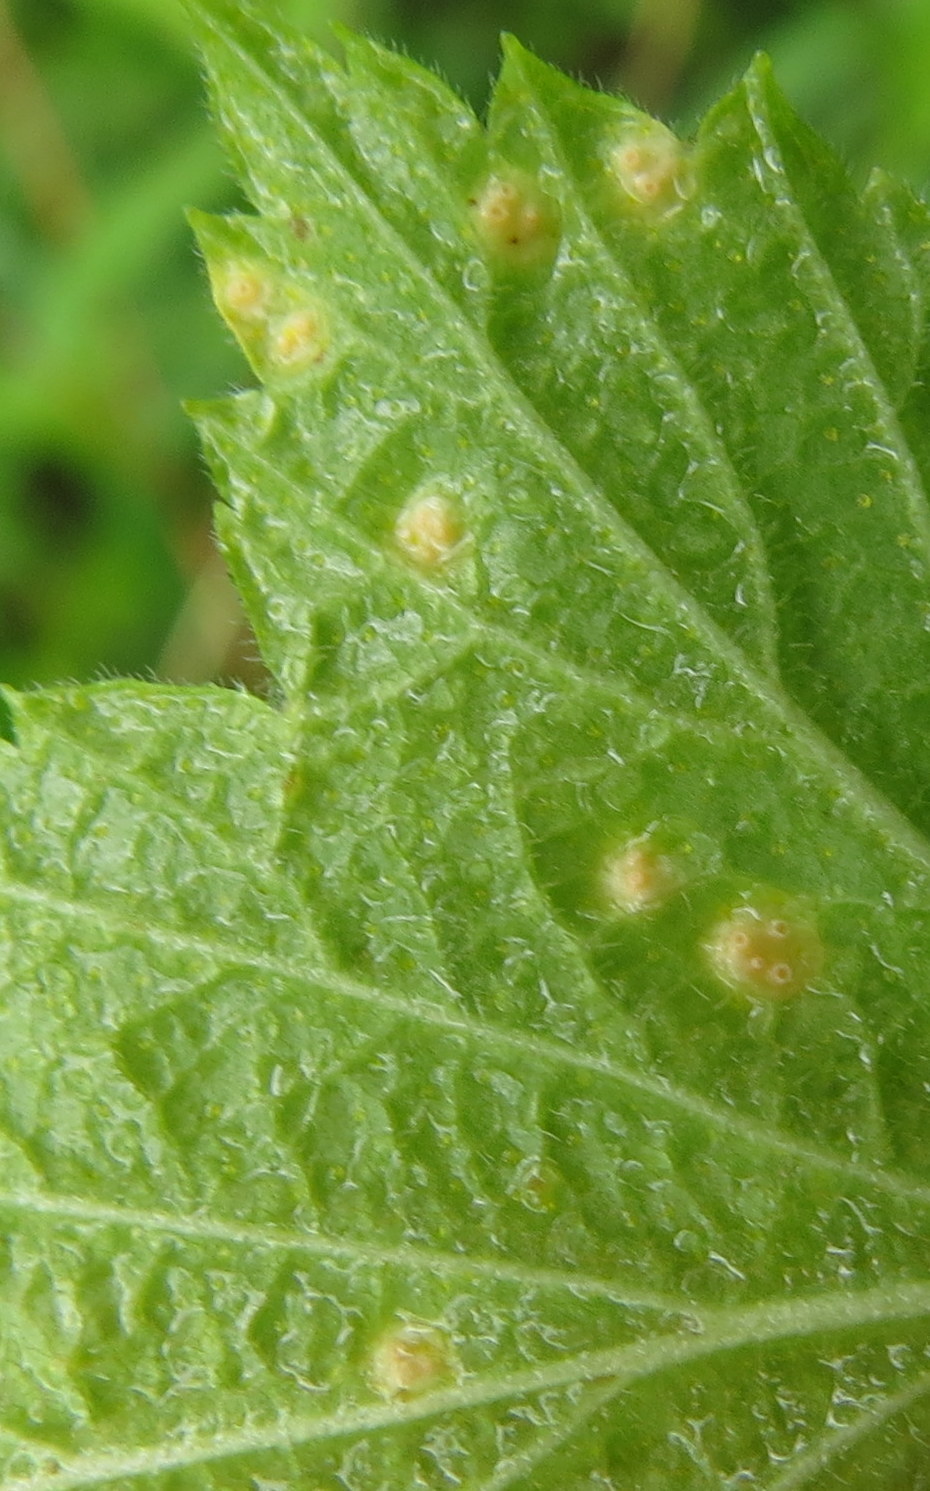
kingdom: Plantae
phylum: Tracheophyta
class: Magnoliopsida
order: Saxifragales
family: Grossulariaceae
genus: Ribes
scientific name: Ribes americanum
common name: American black currant
